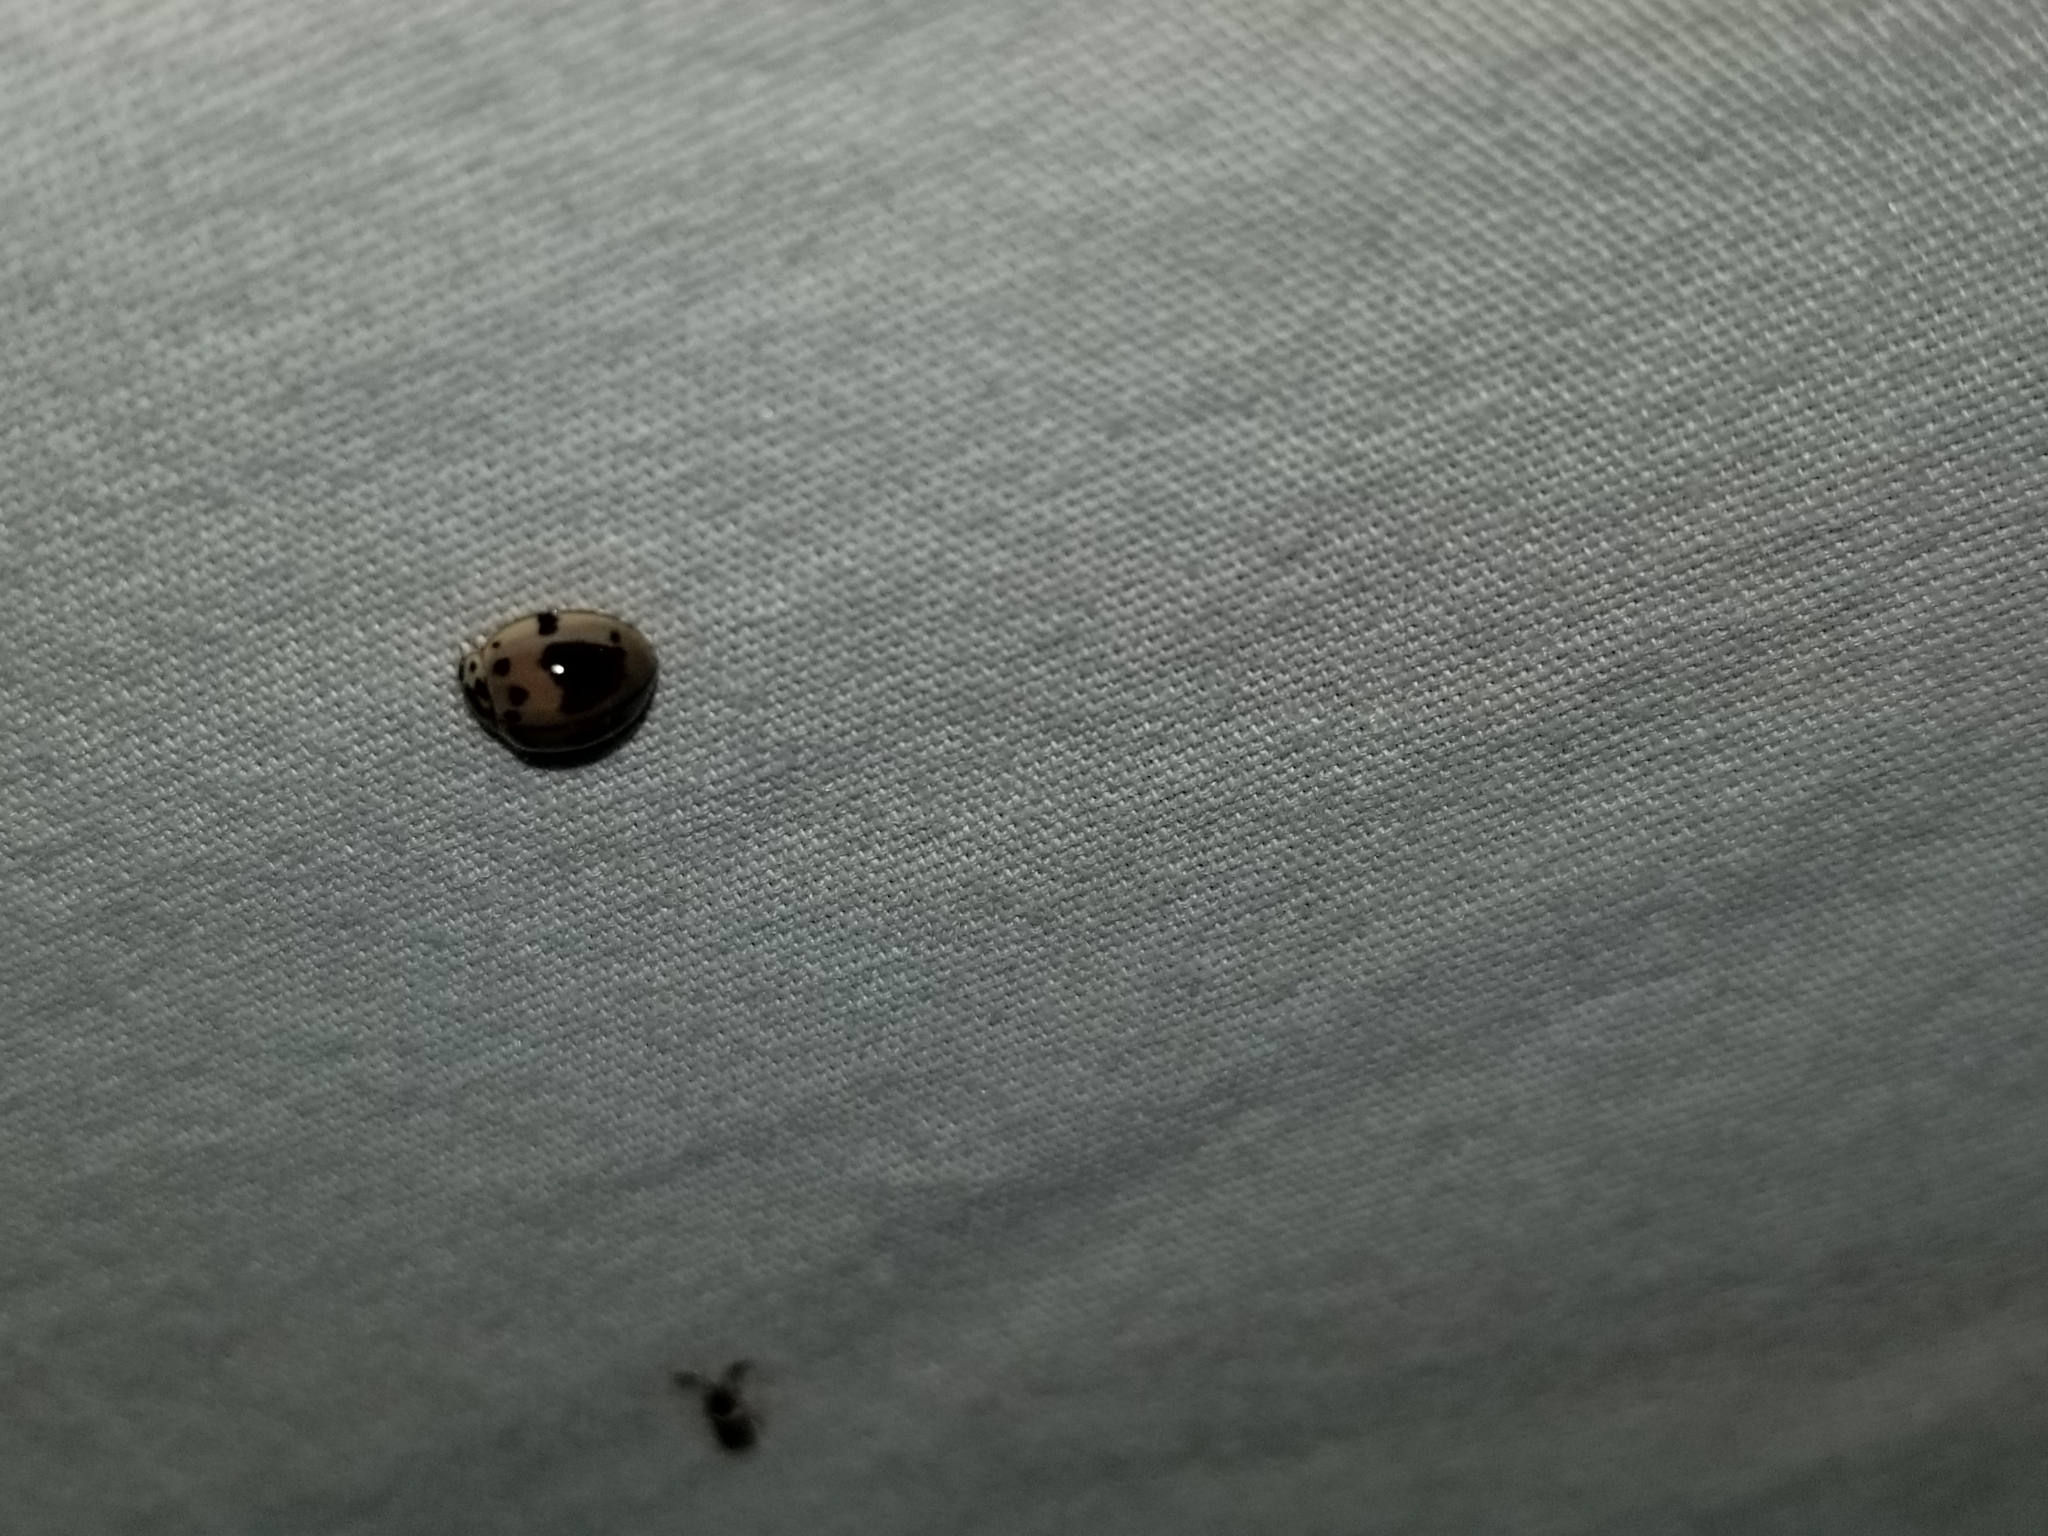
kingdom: Animalia
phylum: Arthropoda
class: Insecta
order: Coleoptera
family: Coccinellidae
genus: Olla
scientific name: Olla v-nigrum
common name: Ashy gray lady beetle
